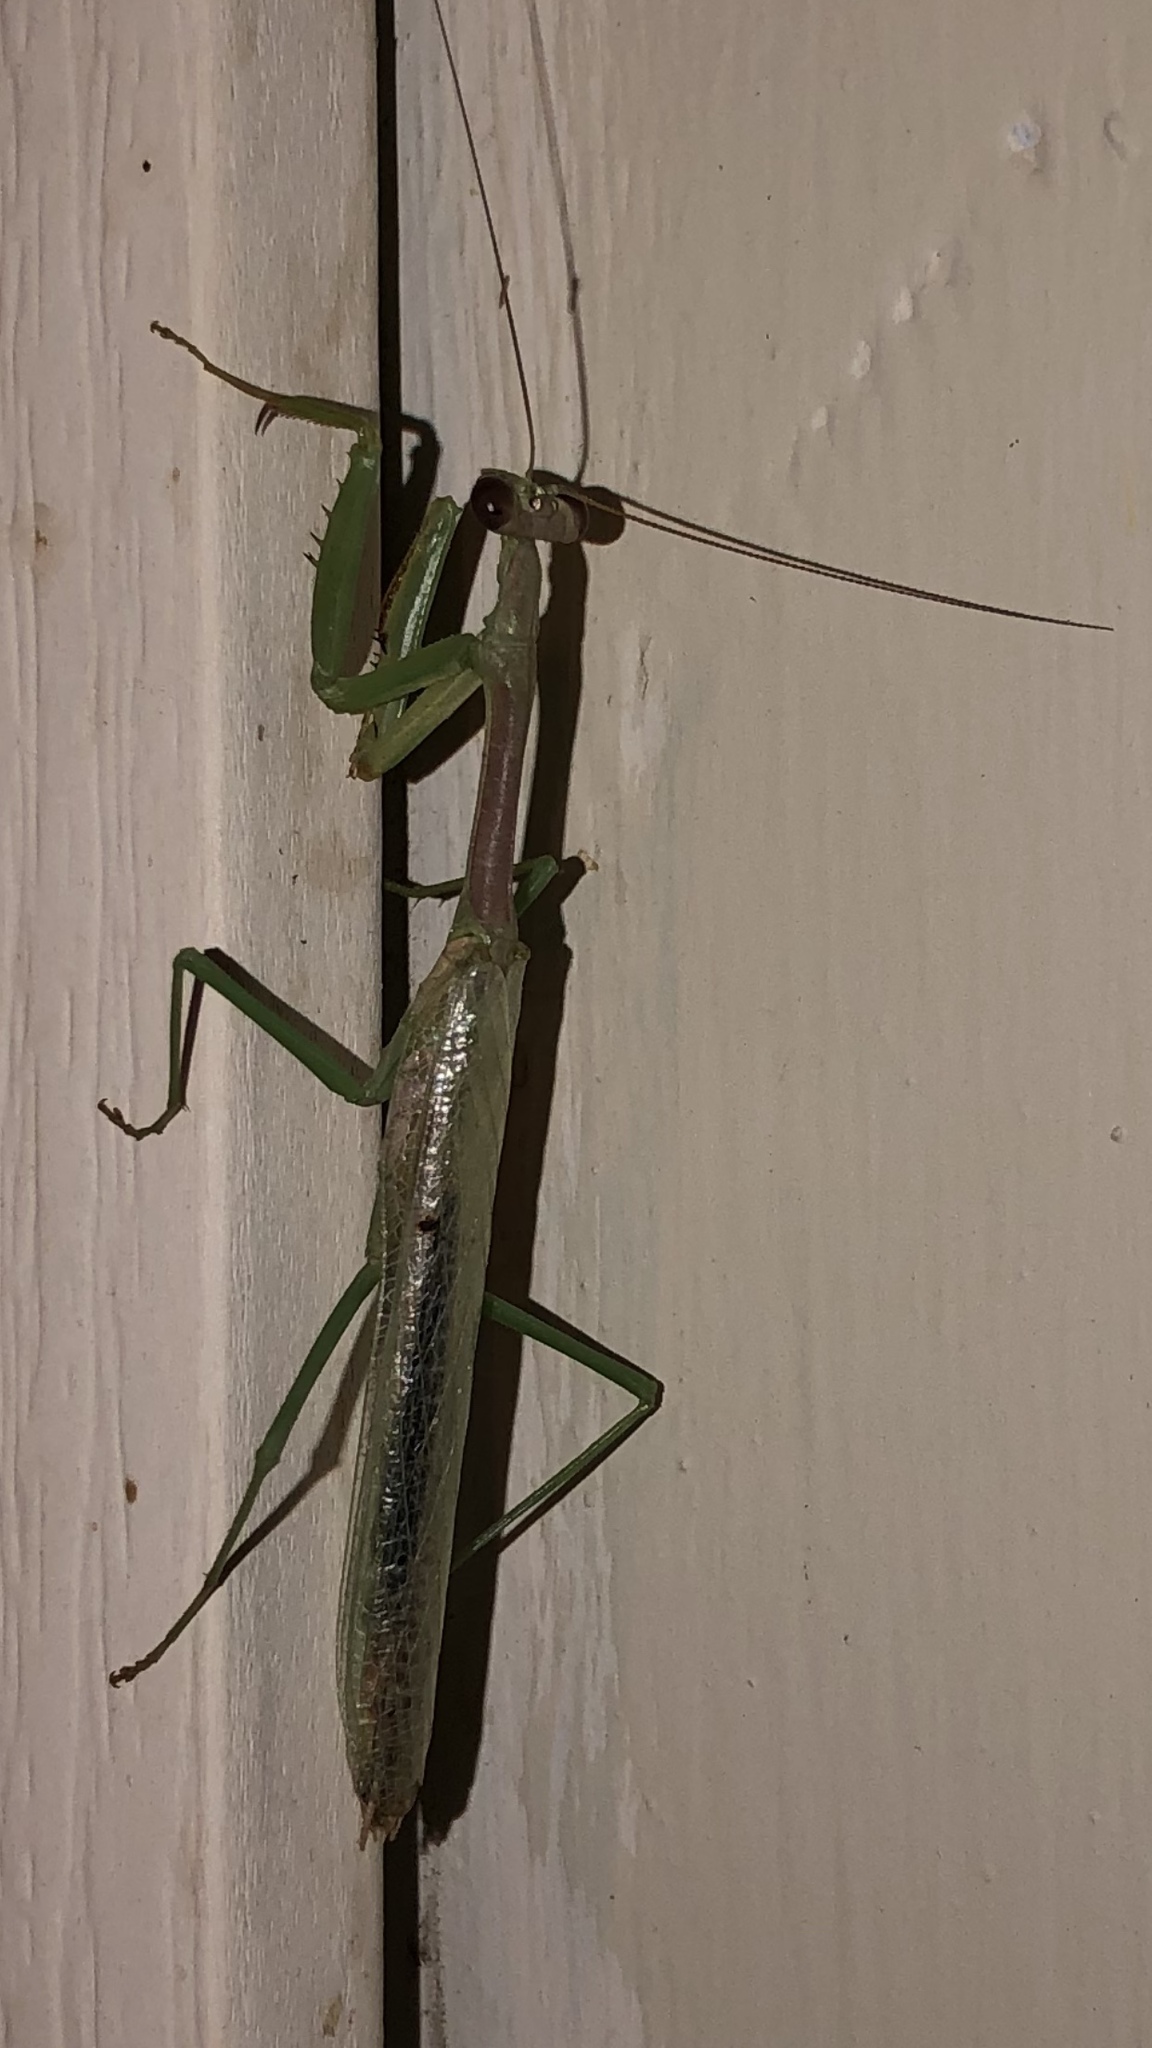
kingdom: Animalia
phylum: Arthropoda
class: Insecta
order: Mantodea
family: Mantidae
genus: Stagmomantis
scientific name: Stagmomantis carolina
